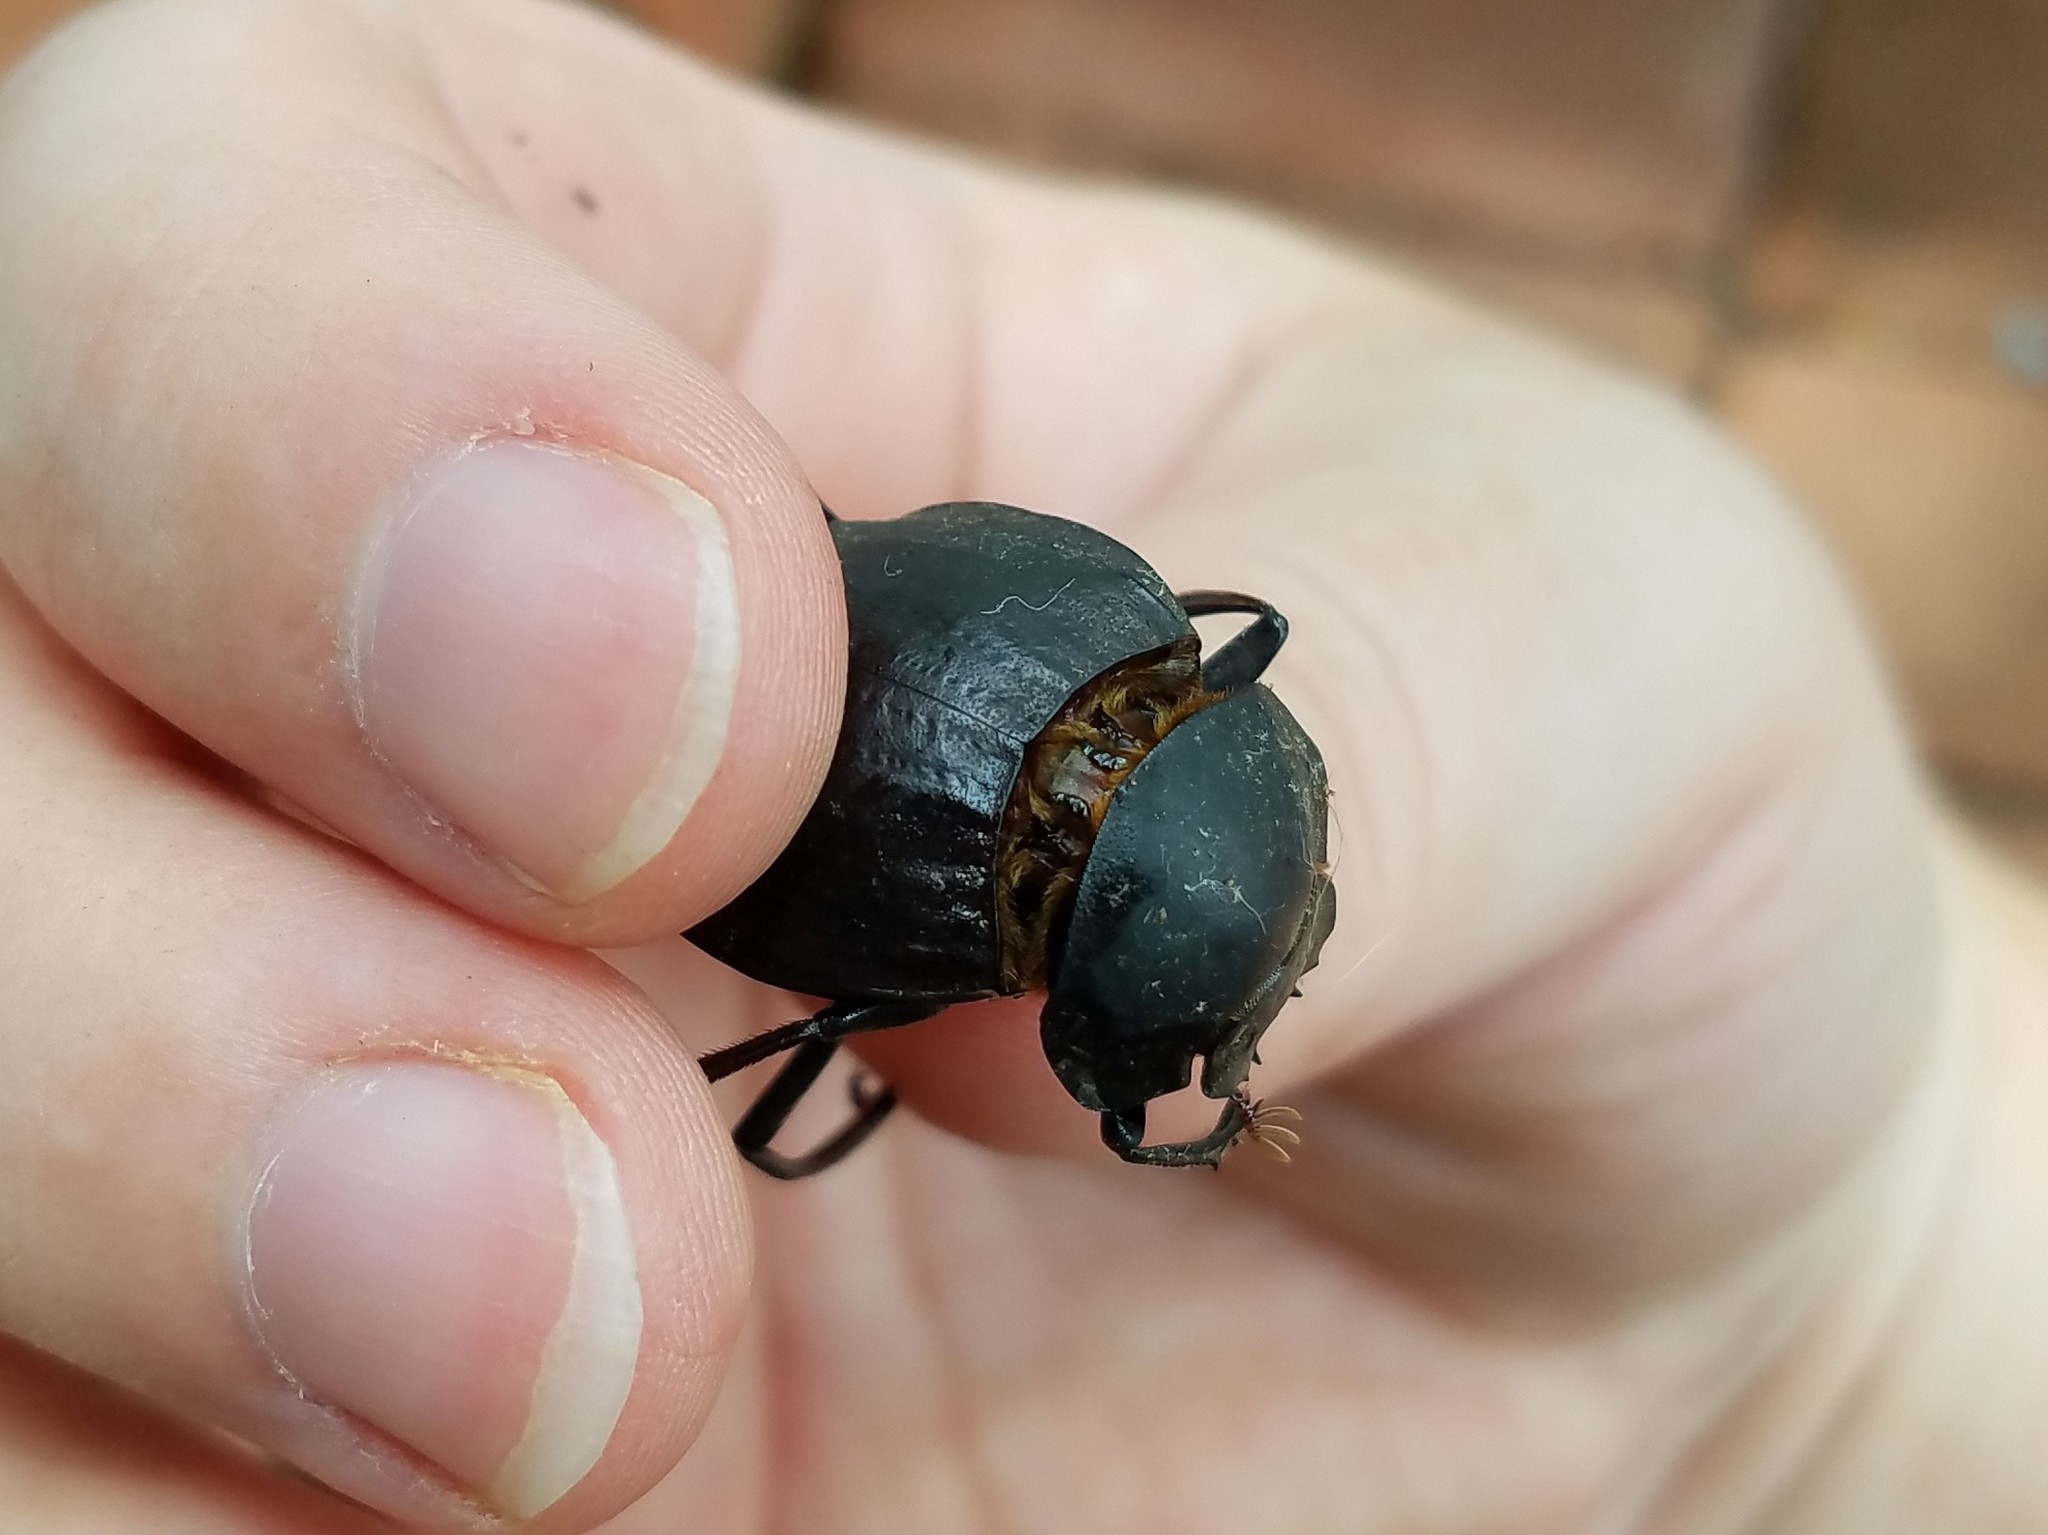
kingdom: Animalia
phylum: Arthropoda
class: Insecta
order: Coleoptera
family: Scarabaeidae
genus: Deltochilum
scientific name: Deltochilum gibbosum
